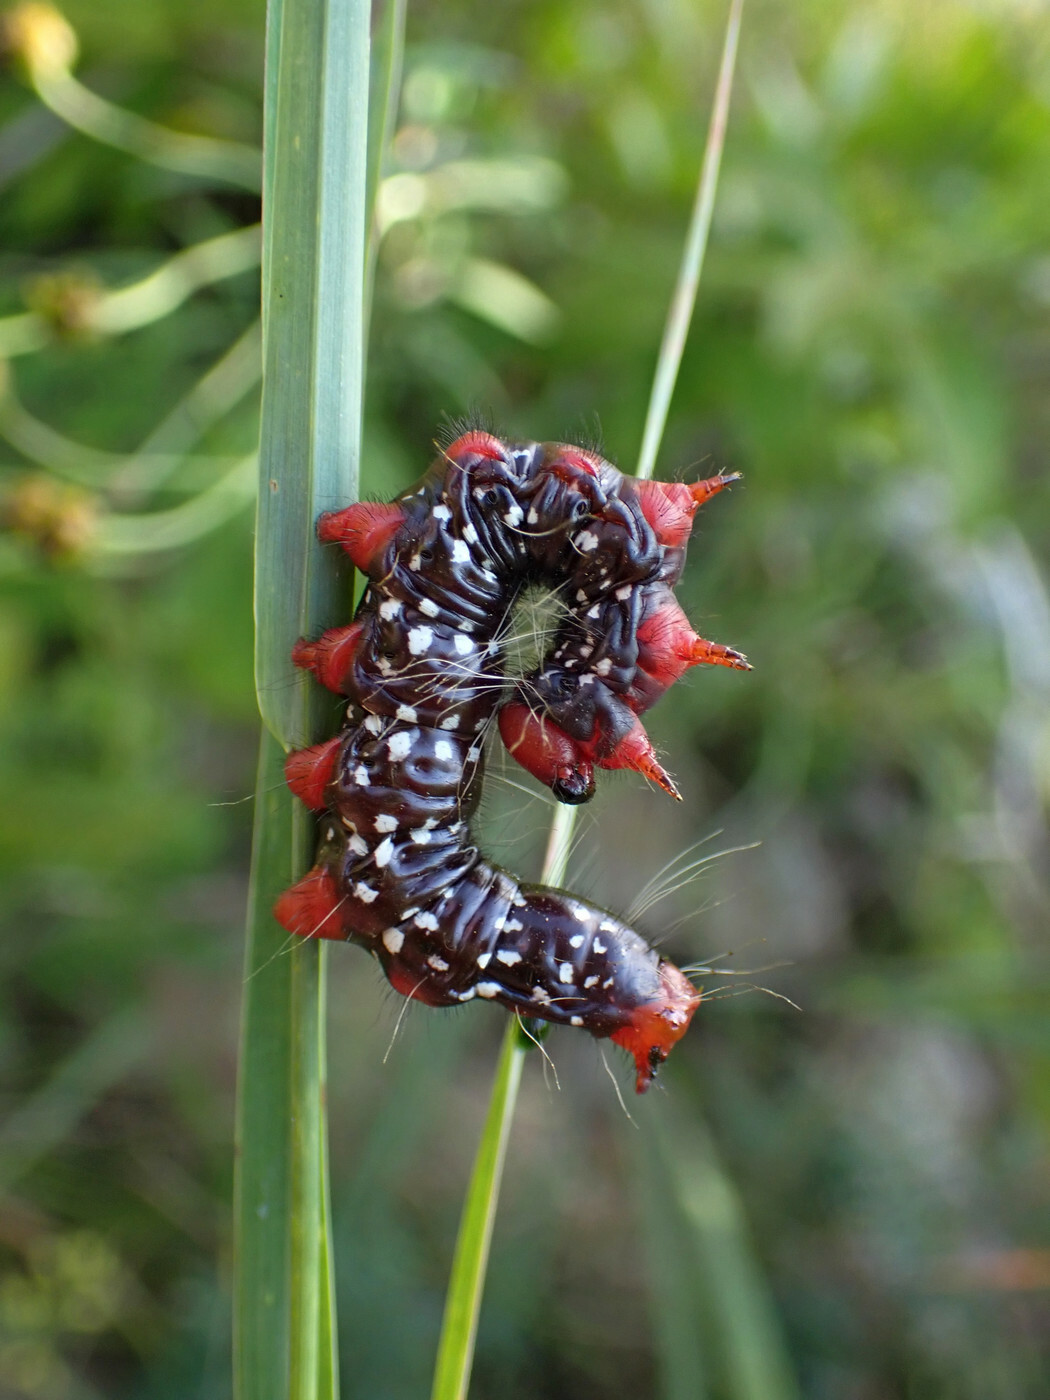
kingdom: Animalia
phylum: Arthropoda
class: Insecta
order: Lepidoptera
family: Notodontidae
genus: Datana
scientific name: Datana major
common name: Azalea caterpillar
